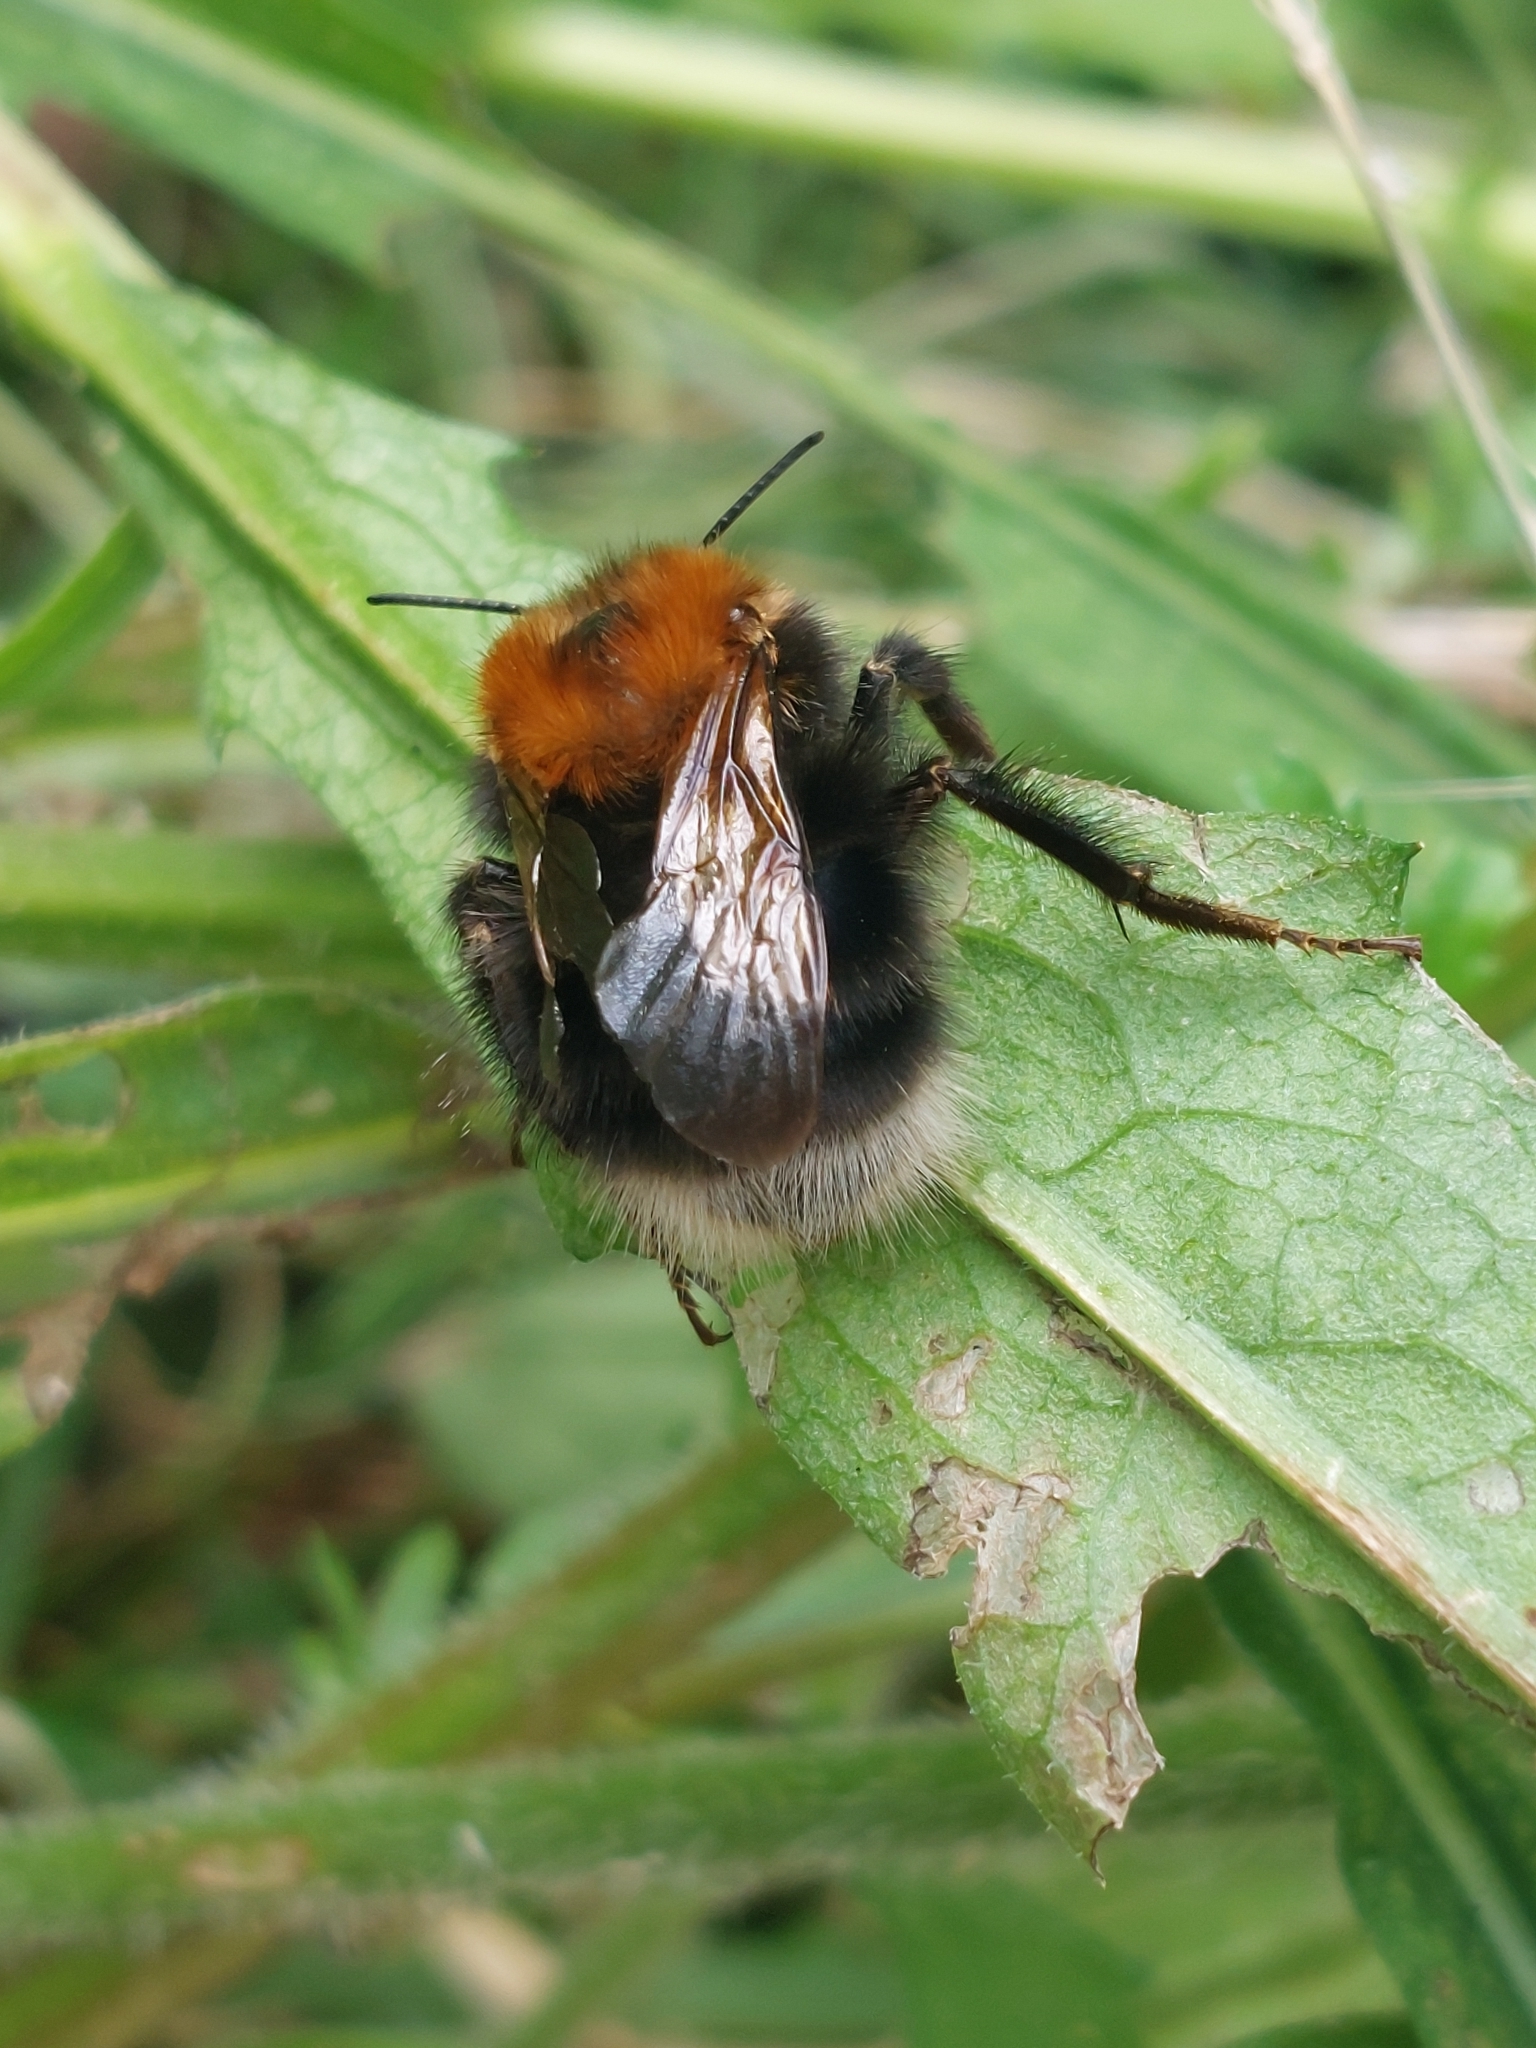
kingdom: Animalia
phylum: Arthropoda
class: Insecta
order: Hymenoptera
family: Apidae
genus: Bombus
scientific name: Bombus hypnorum
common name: New garden bumblebee
